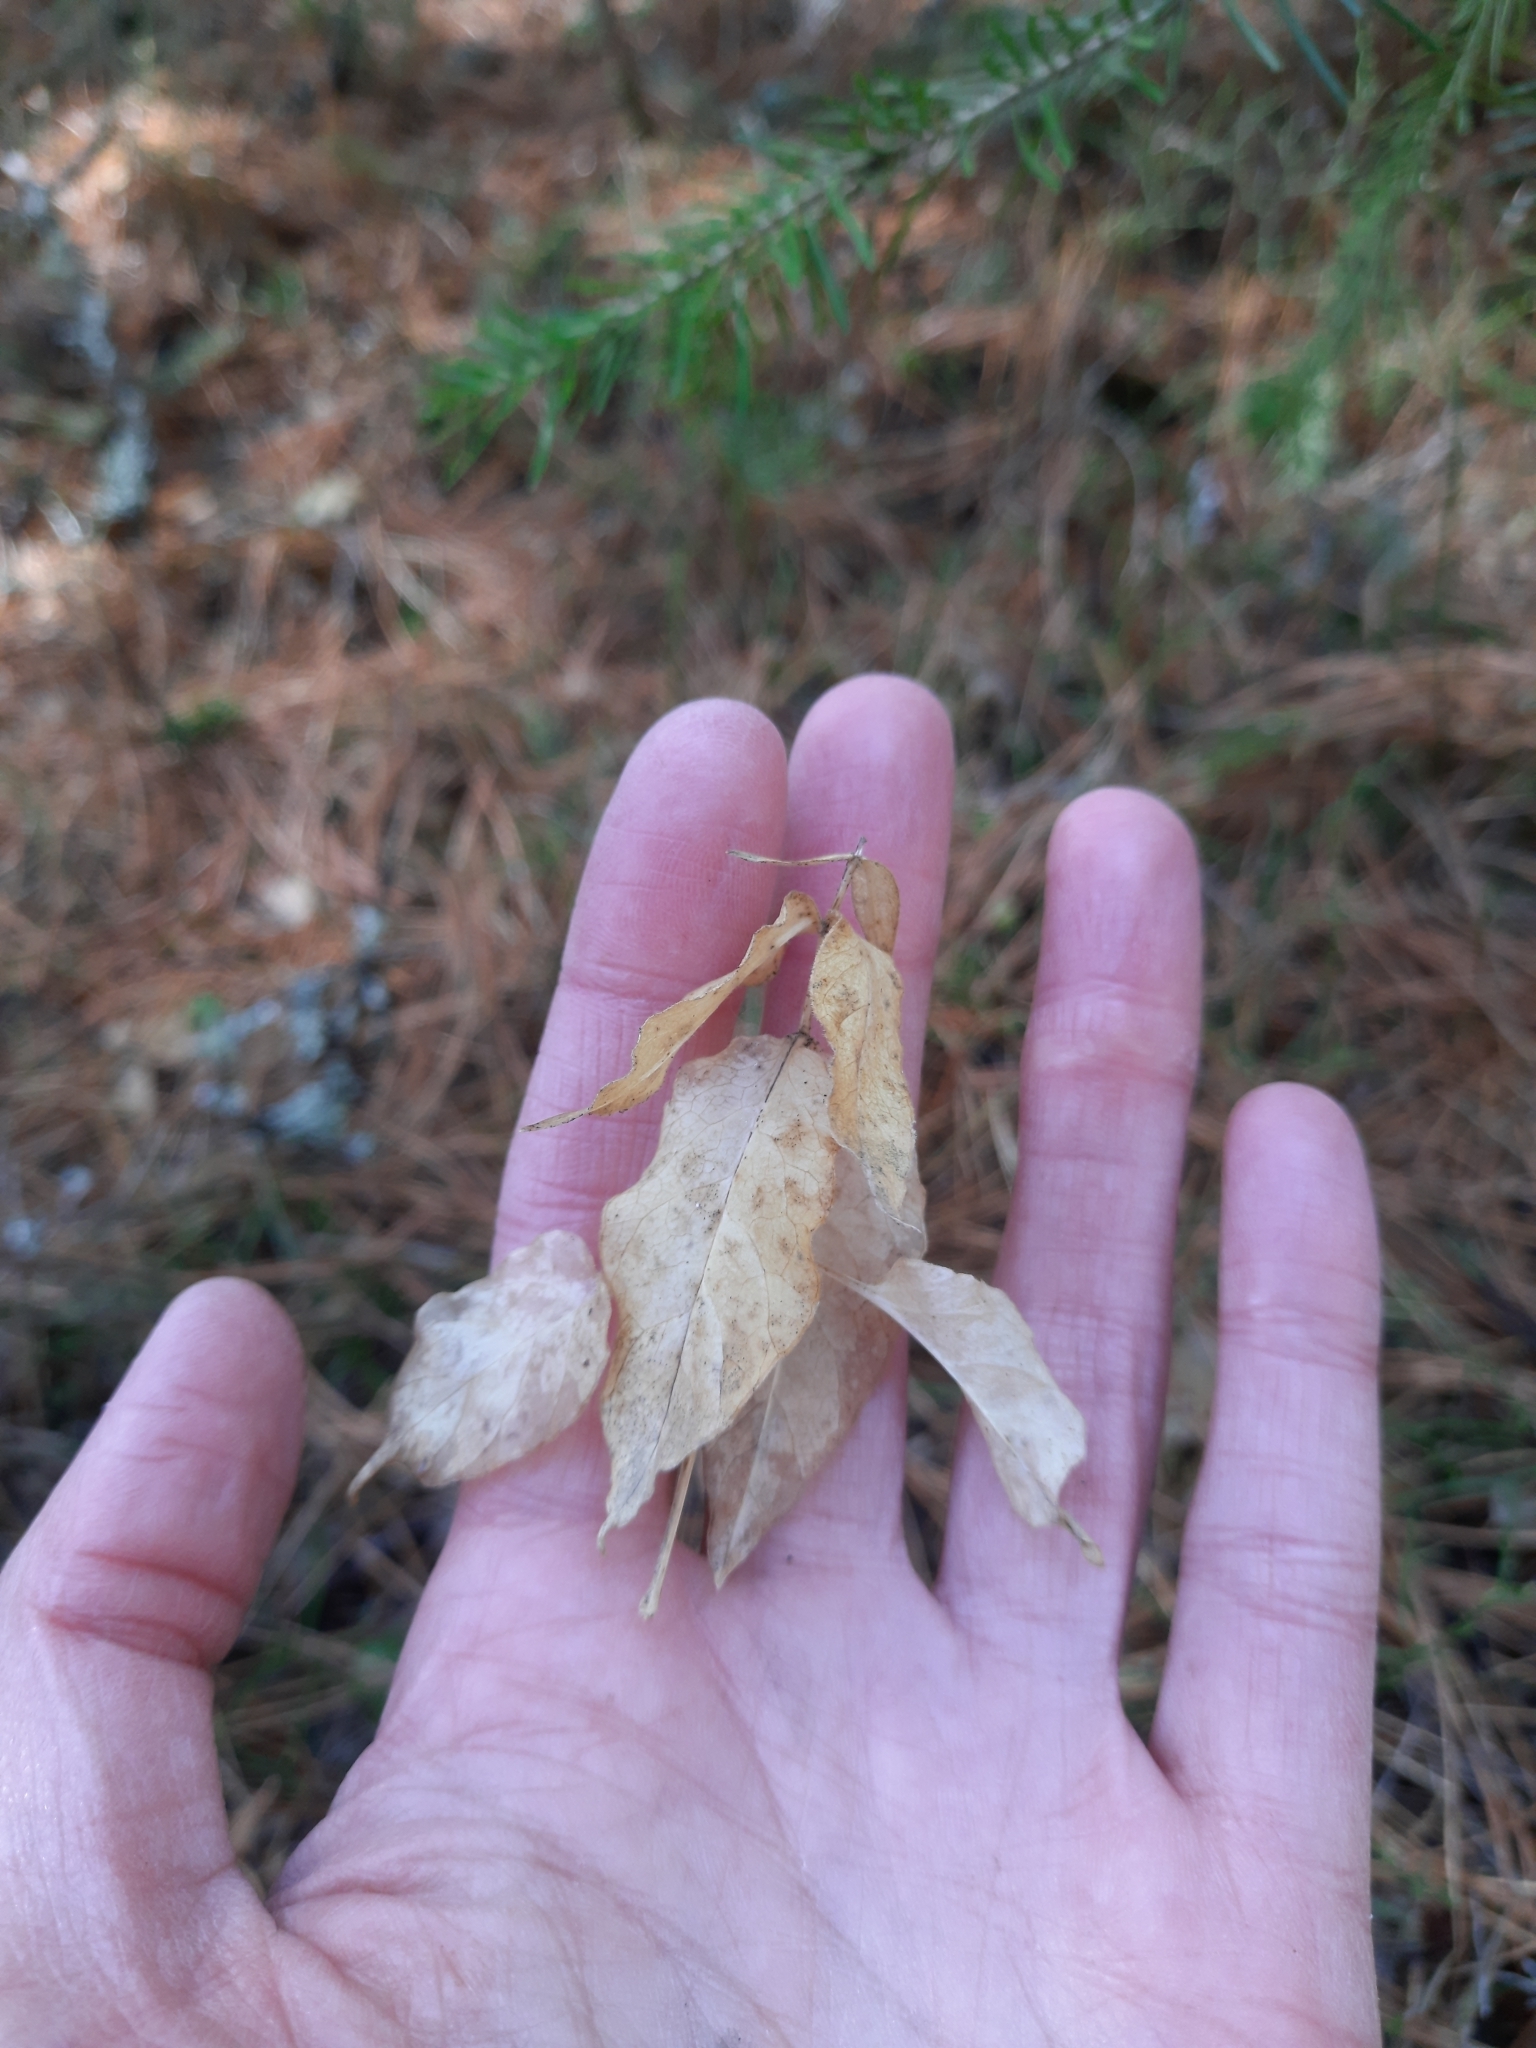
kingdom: Plantae
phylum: Tracheophyta
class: Magnoliopsida
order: Caryophyllales
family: Caryophyllaceae
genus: Stellaria
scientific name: Stellaria bungeana
